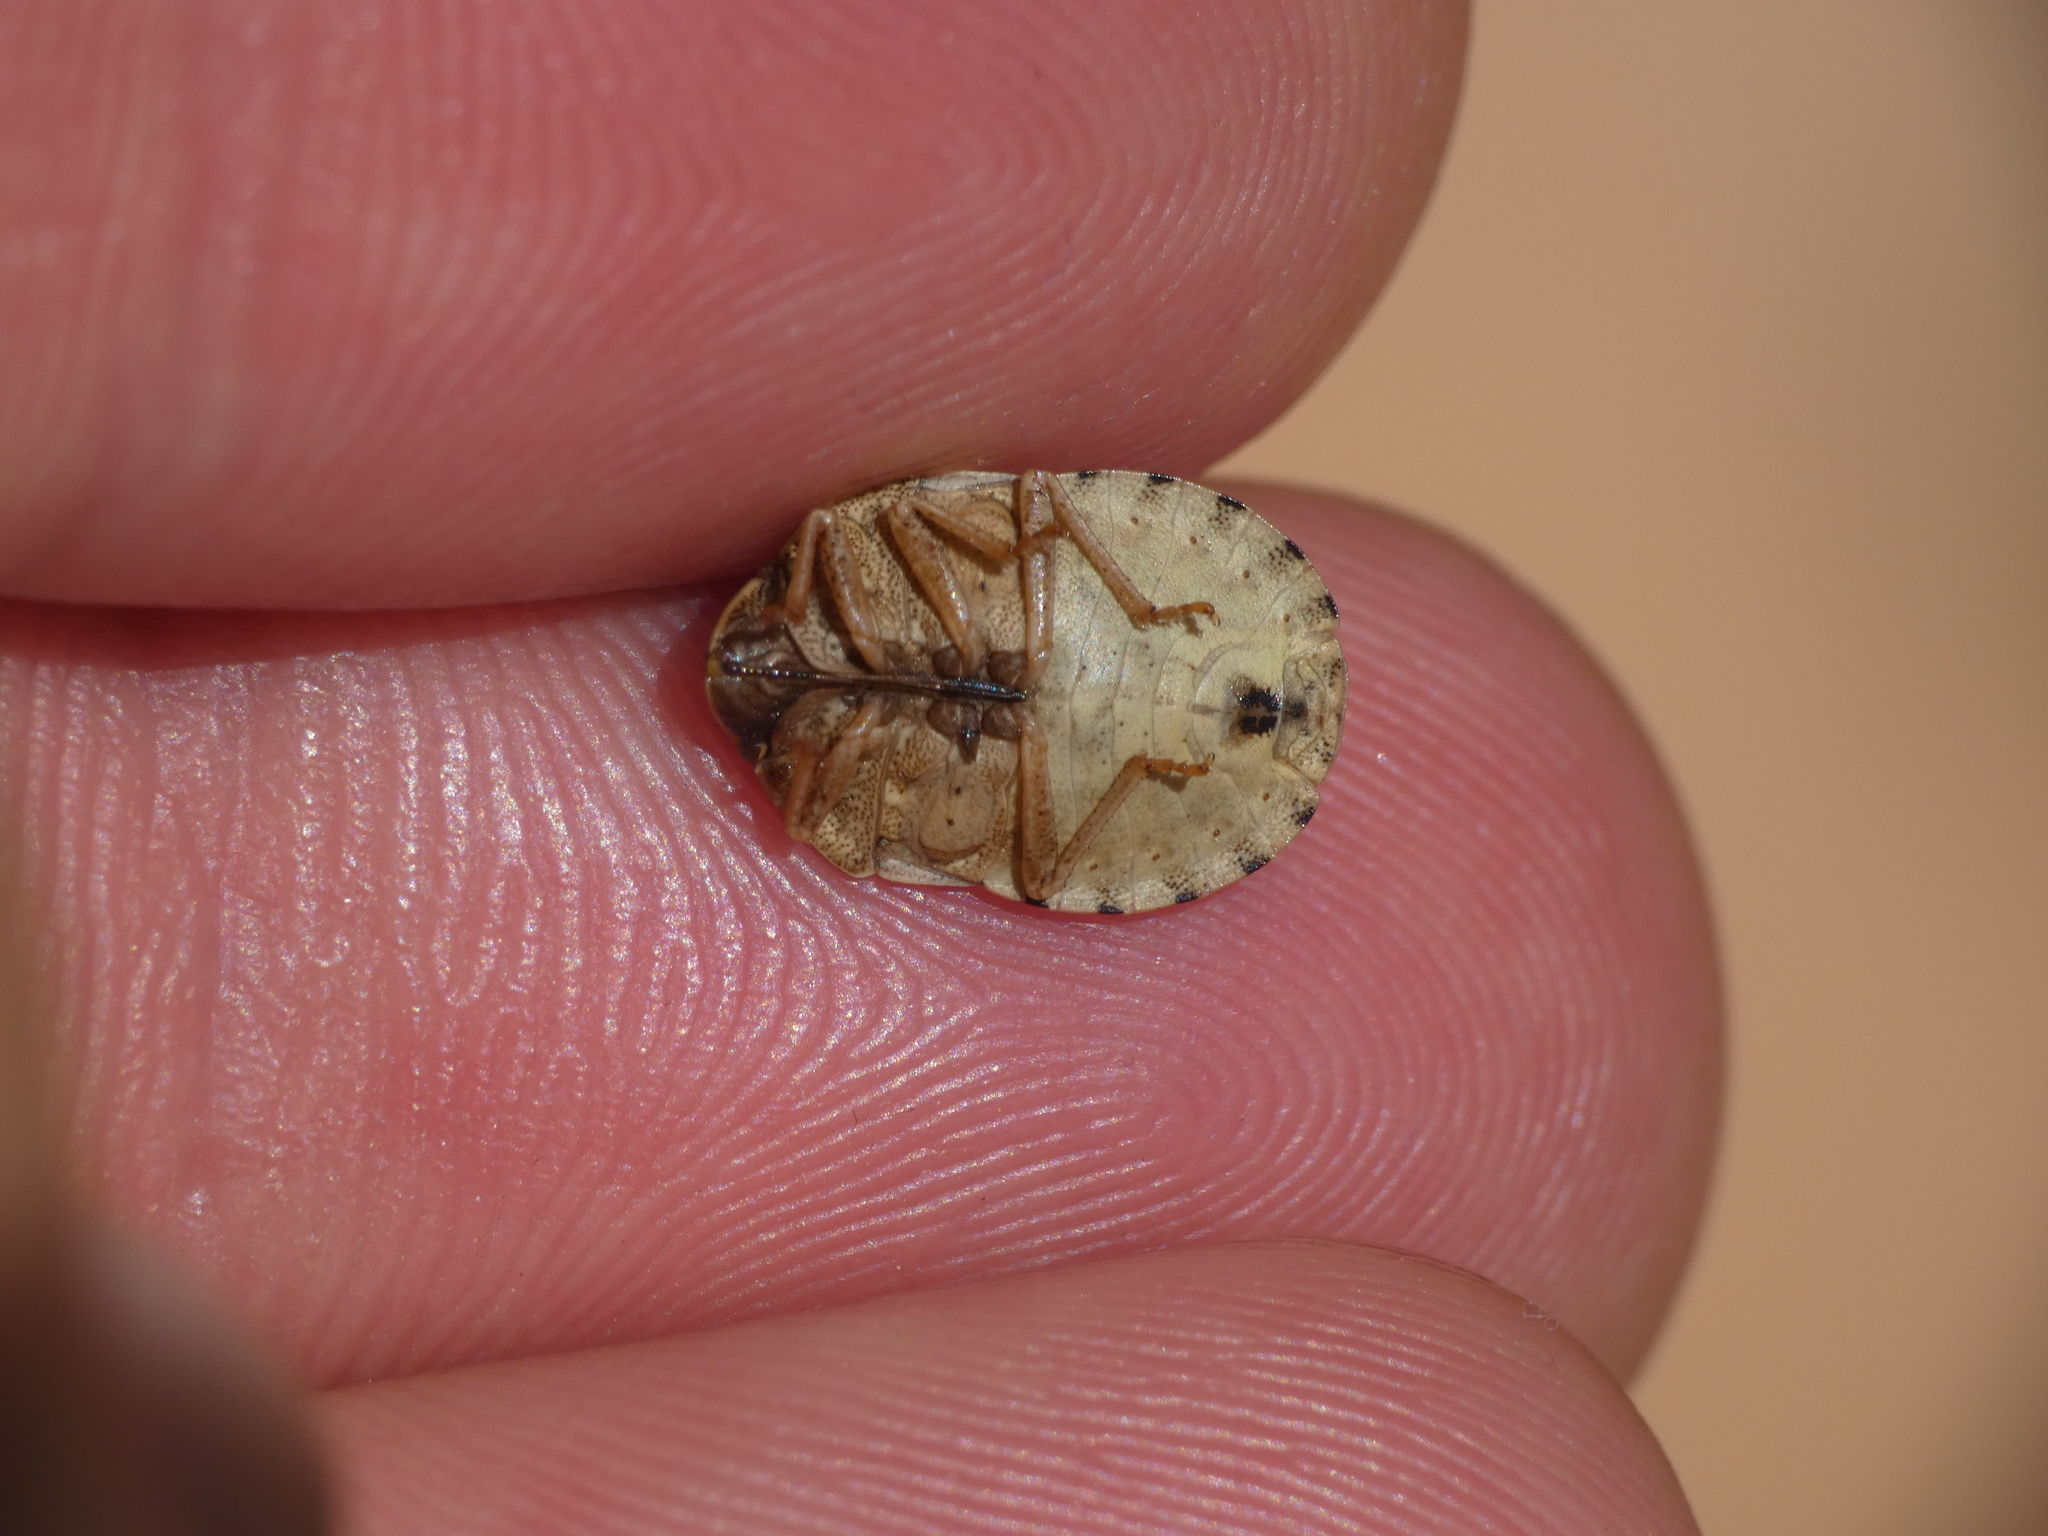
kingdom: Animalia
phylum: Arthropoda
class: Insecta
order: Hemiptera
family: Scutelleridae
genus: Eurygaster
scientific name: Eurygaster maura
